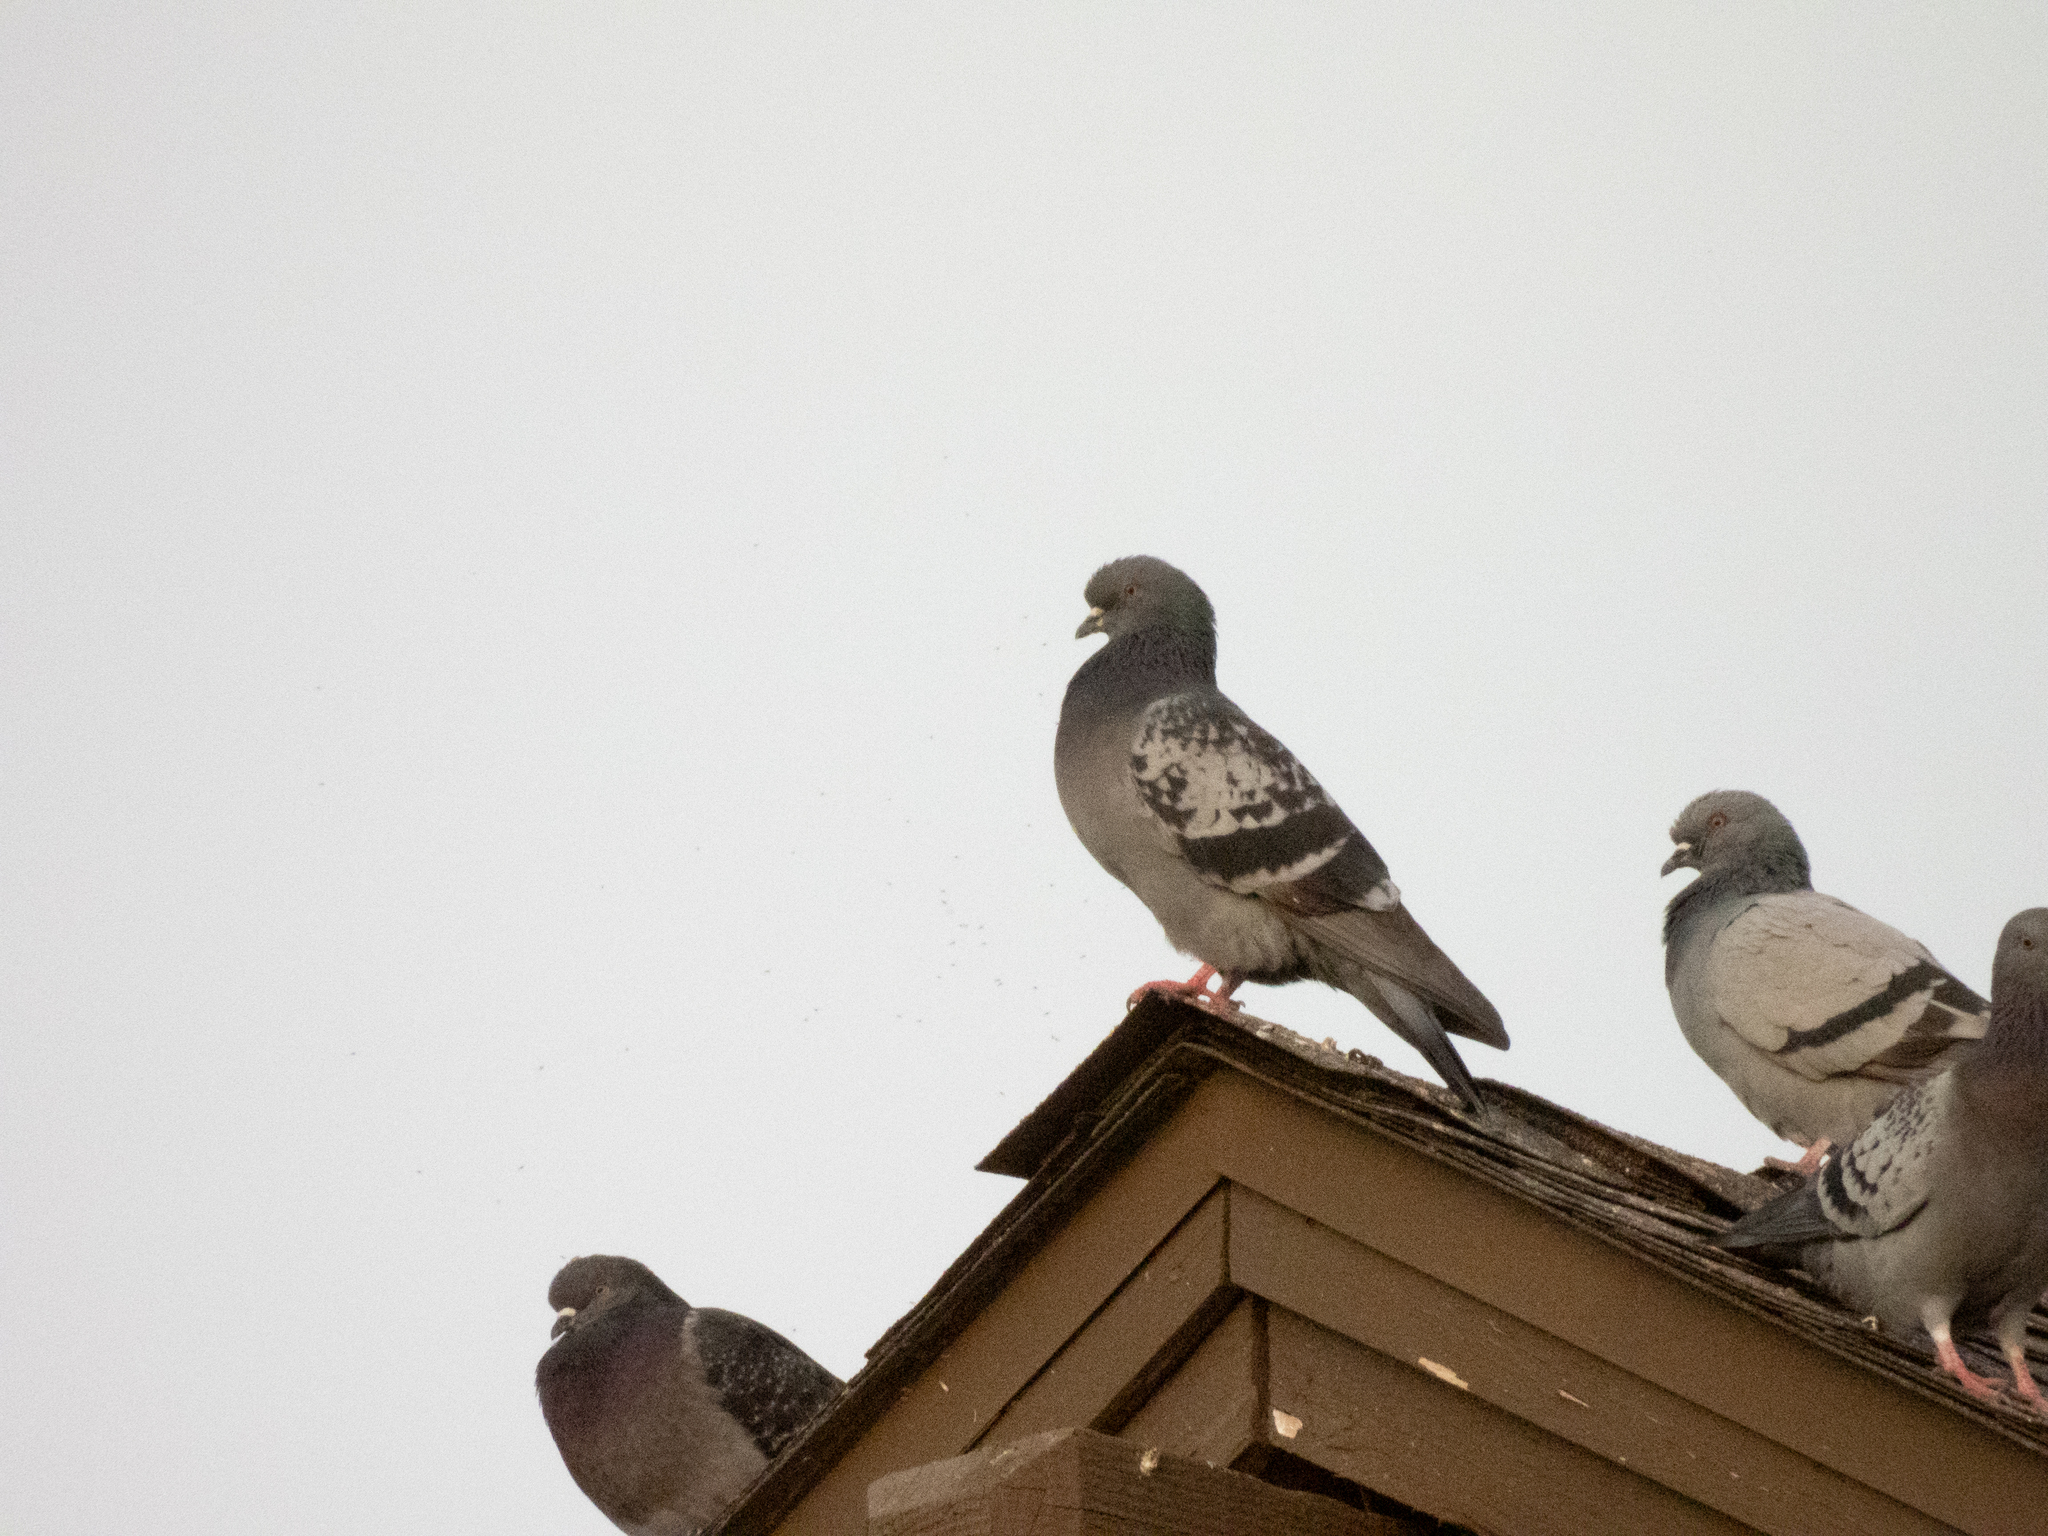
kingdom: Animalia
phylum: Chordata
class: Aves
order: Columbiformes
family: Columbidae
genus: Columba
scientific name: Columba livia
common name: Rock pigeon
